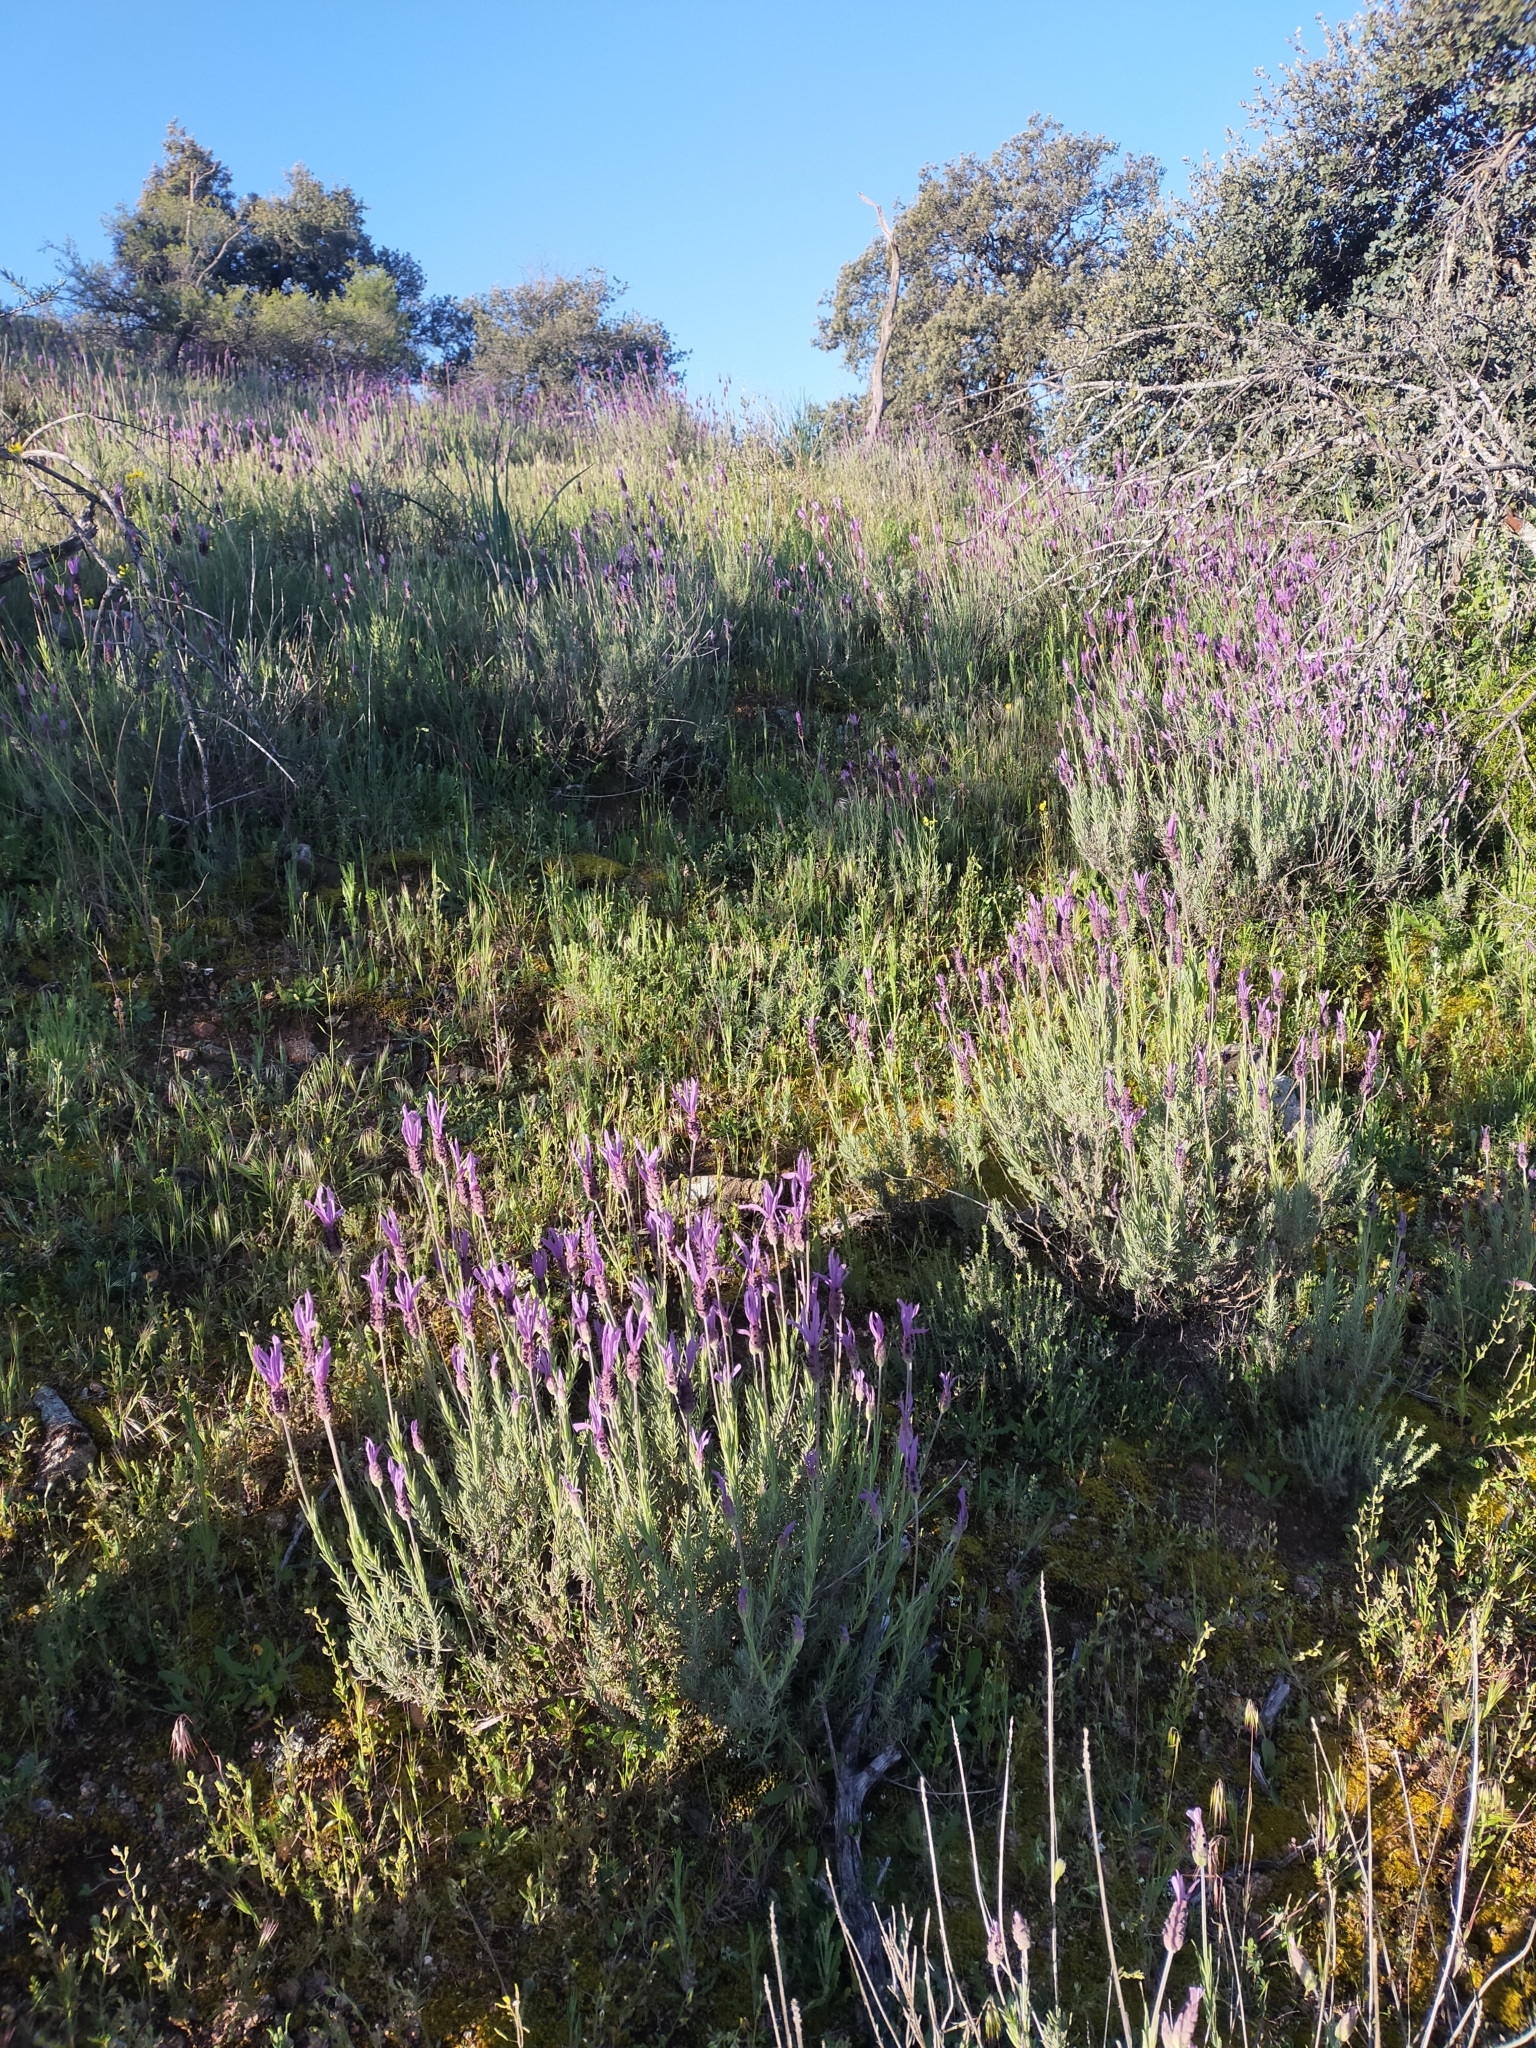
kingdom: Plantae
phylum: Tracheophyta
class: Magnoliopsida
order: Lamiales
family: Lamiaceae
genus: Lavandula
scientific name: Lavandula pedunculata
